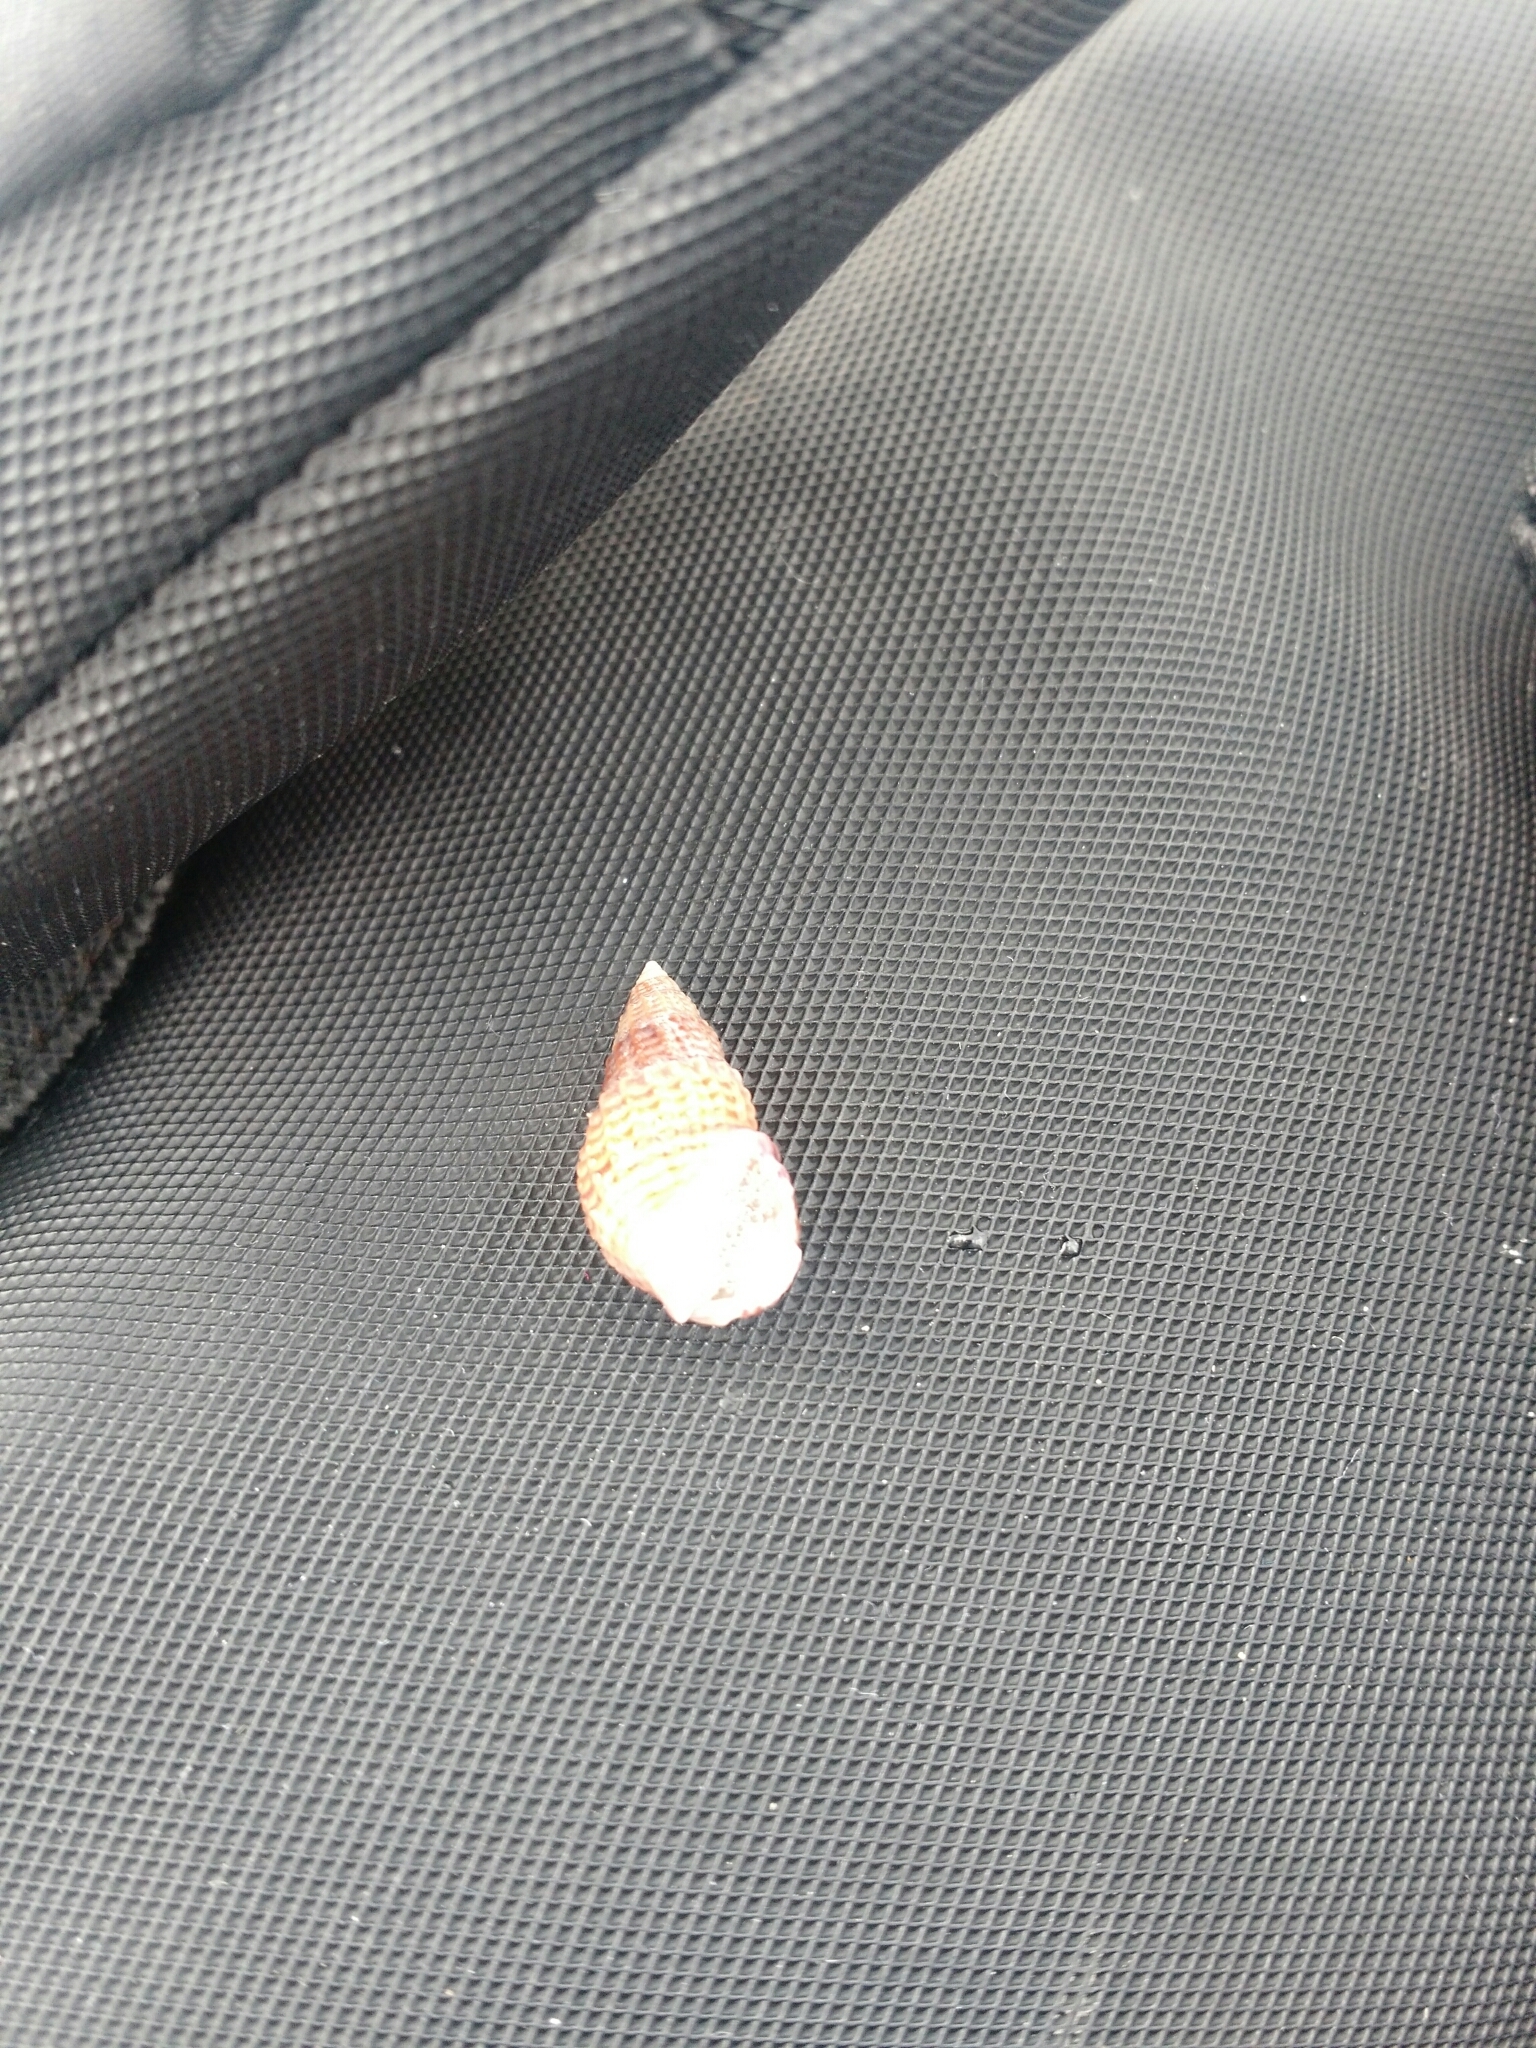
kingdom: Animalia
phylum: Mollusca
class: Gastropoda
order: Neogastropoda
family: Nassariidae
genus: Ilyanassa
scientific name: Ilyanassa trivittata
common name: Three-line mudsnail
